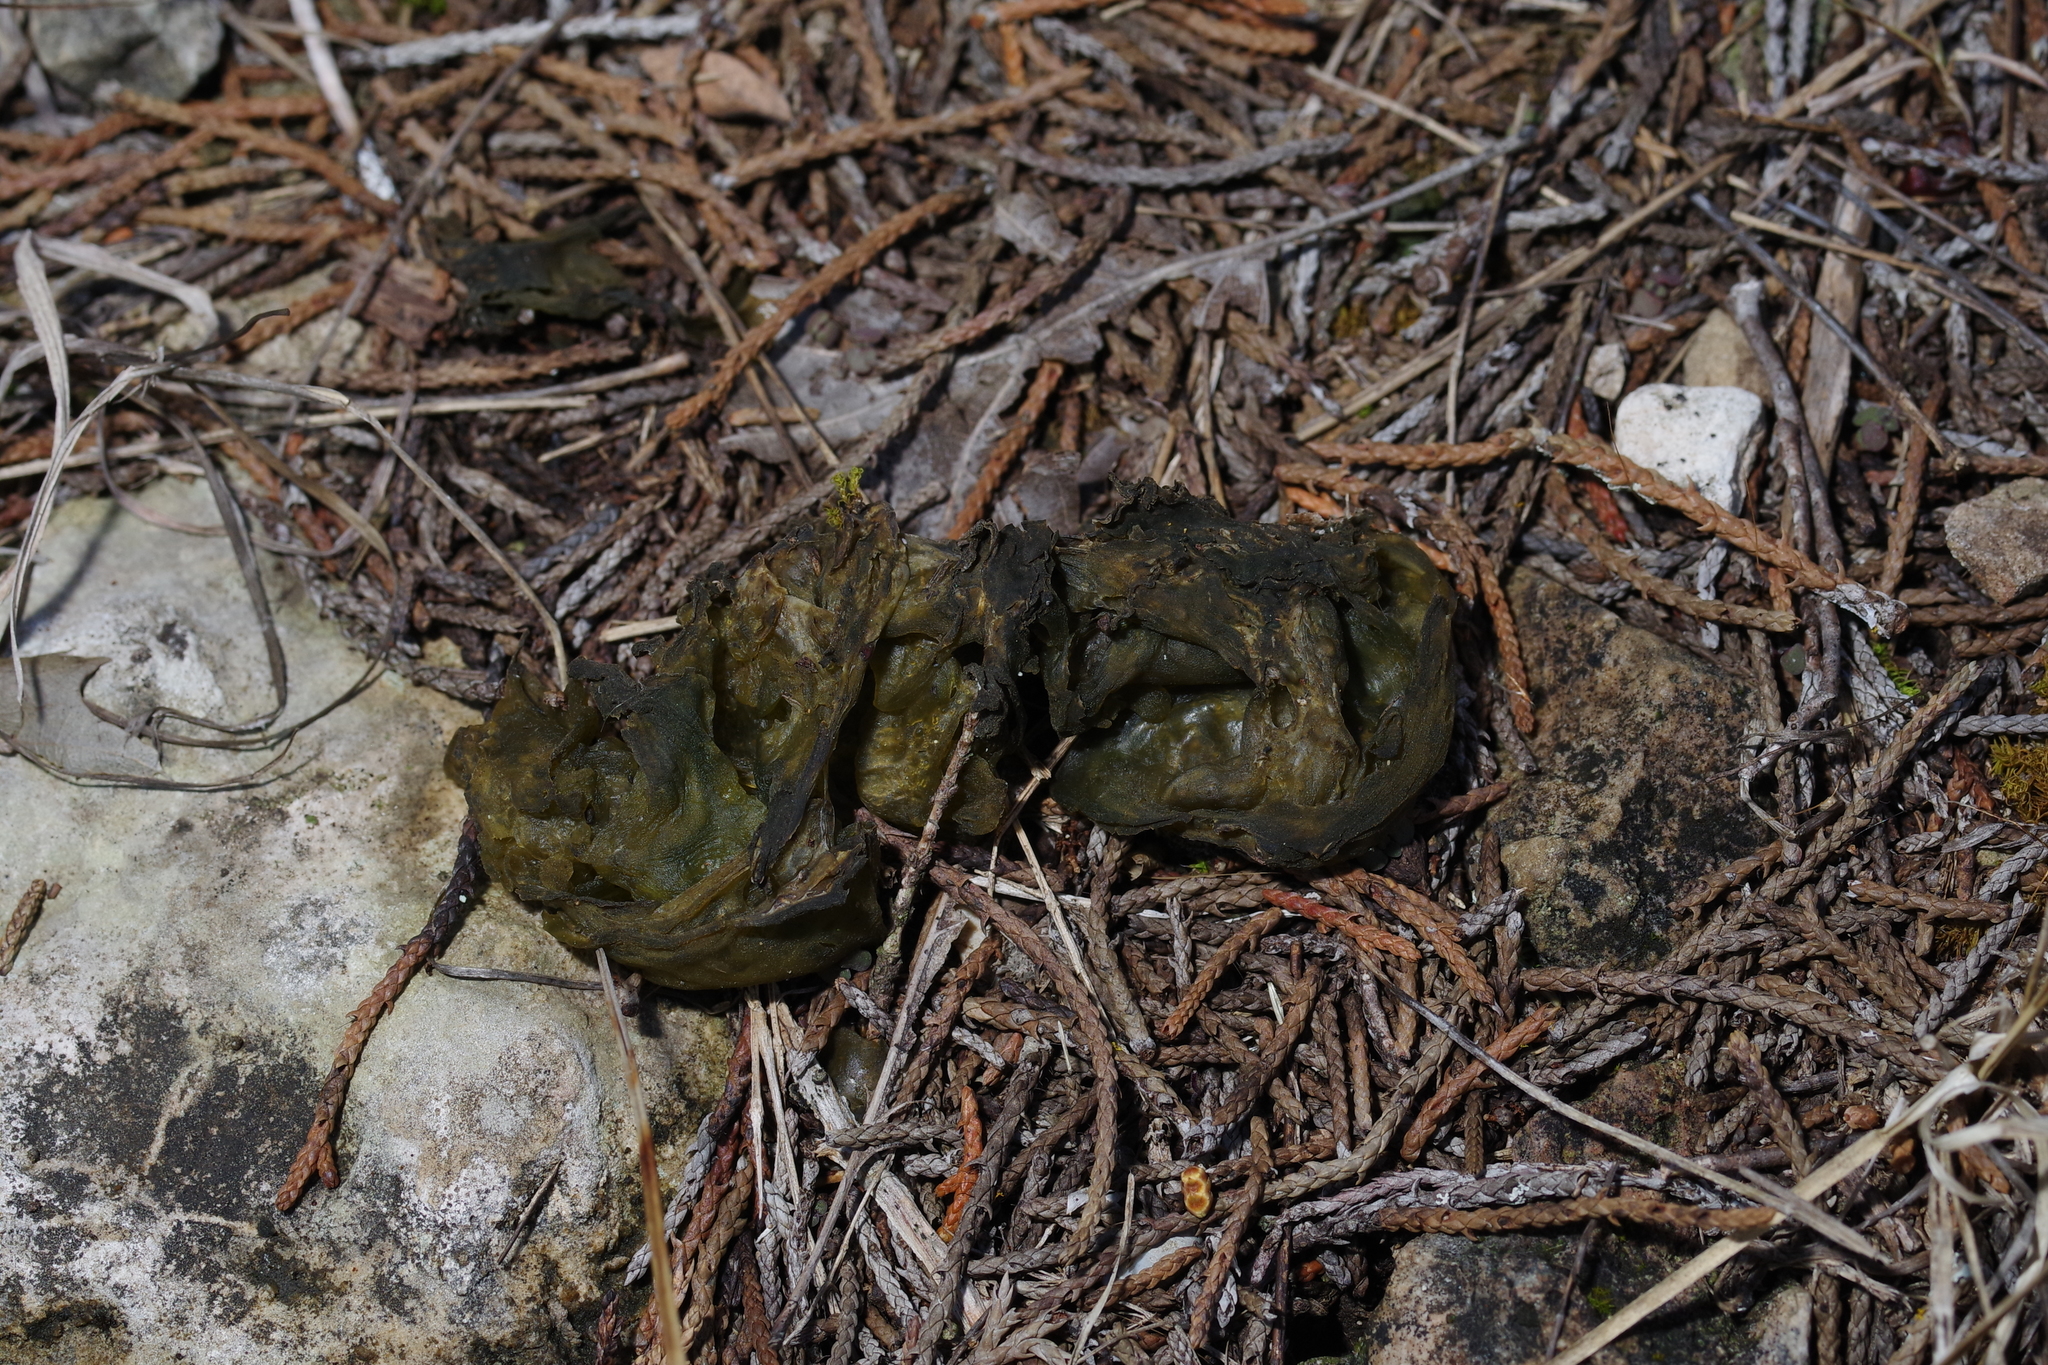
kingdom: Bacteria
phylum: Cyanobacteria
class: Cyanobacteriia
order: Cyanobacteriales
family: Nostocaceae
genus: Nostoc
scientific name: Nostoc commune
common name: Star jelly
